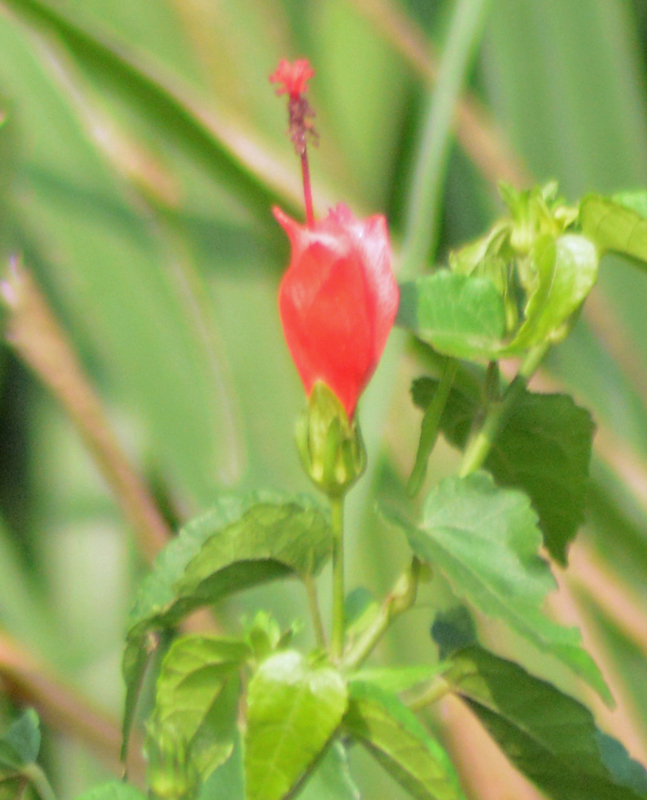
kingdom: Plantae
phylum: Tracheophyta
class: Magnoliopsida
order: Malvales
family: Malvaceae
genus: Malvaviscus
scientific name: Malvaviscus arboreus
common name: Wax mallow
